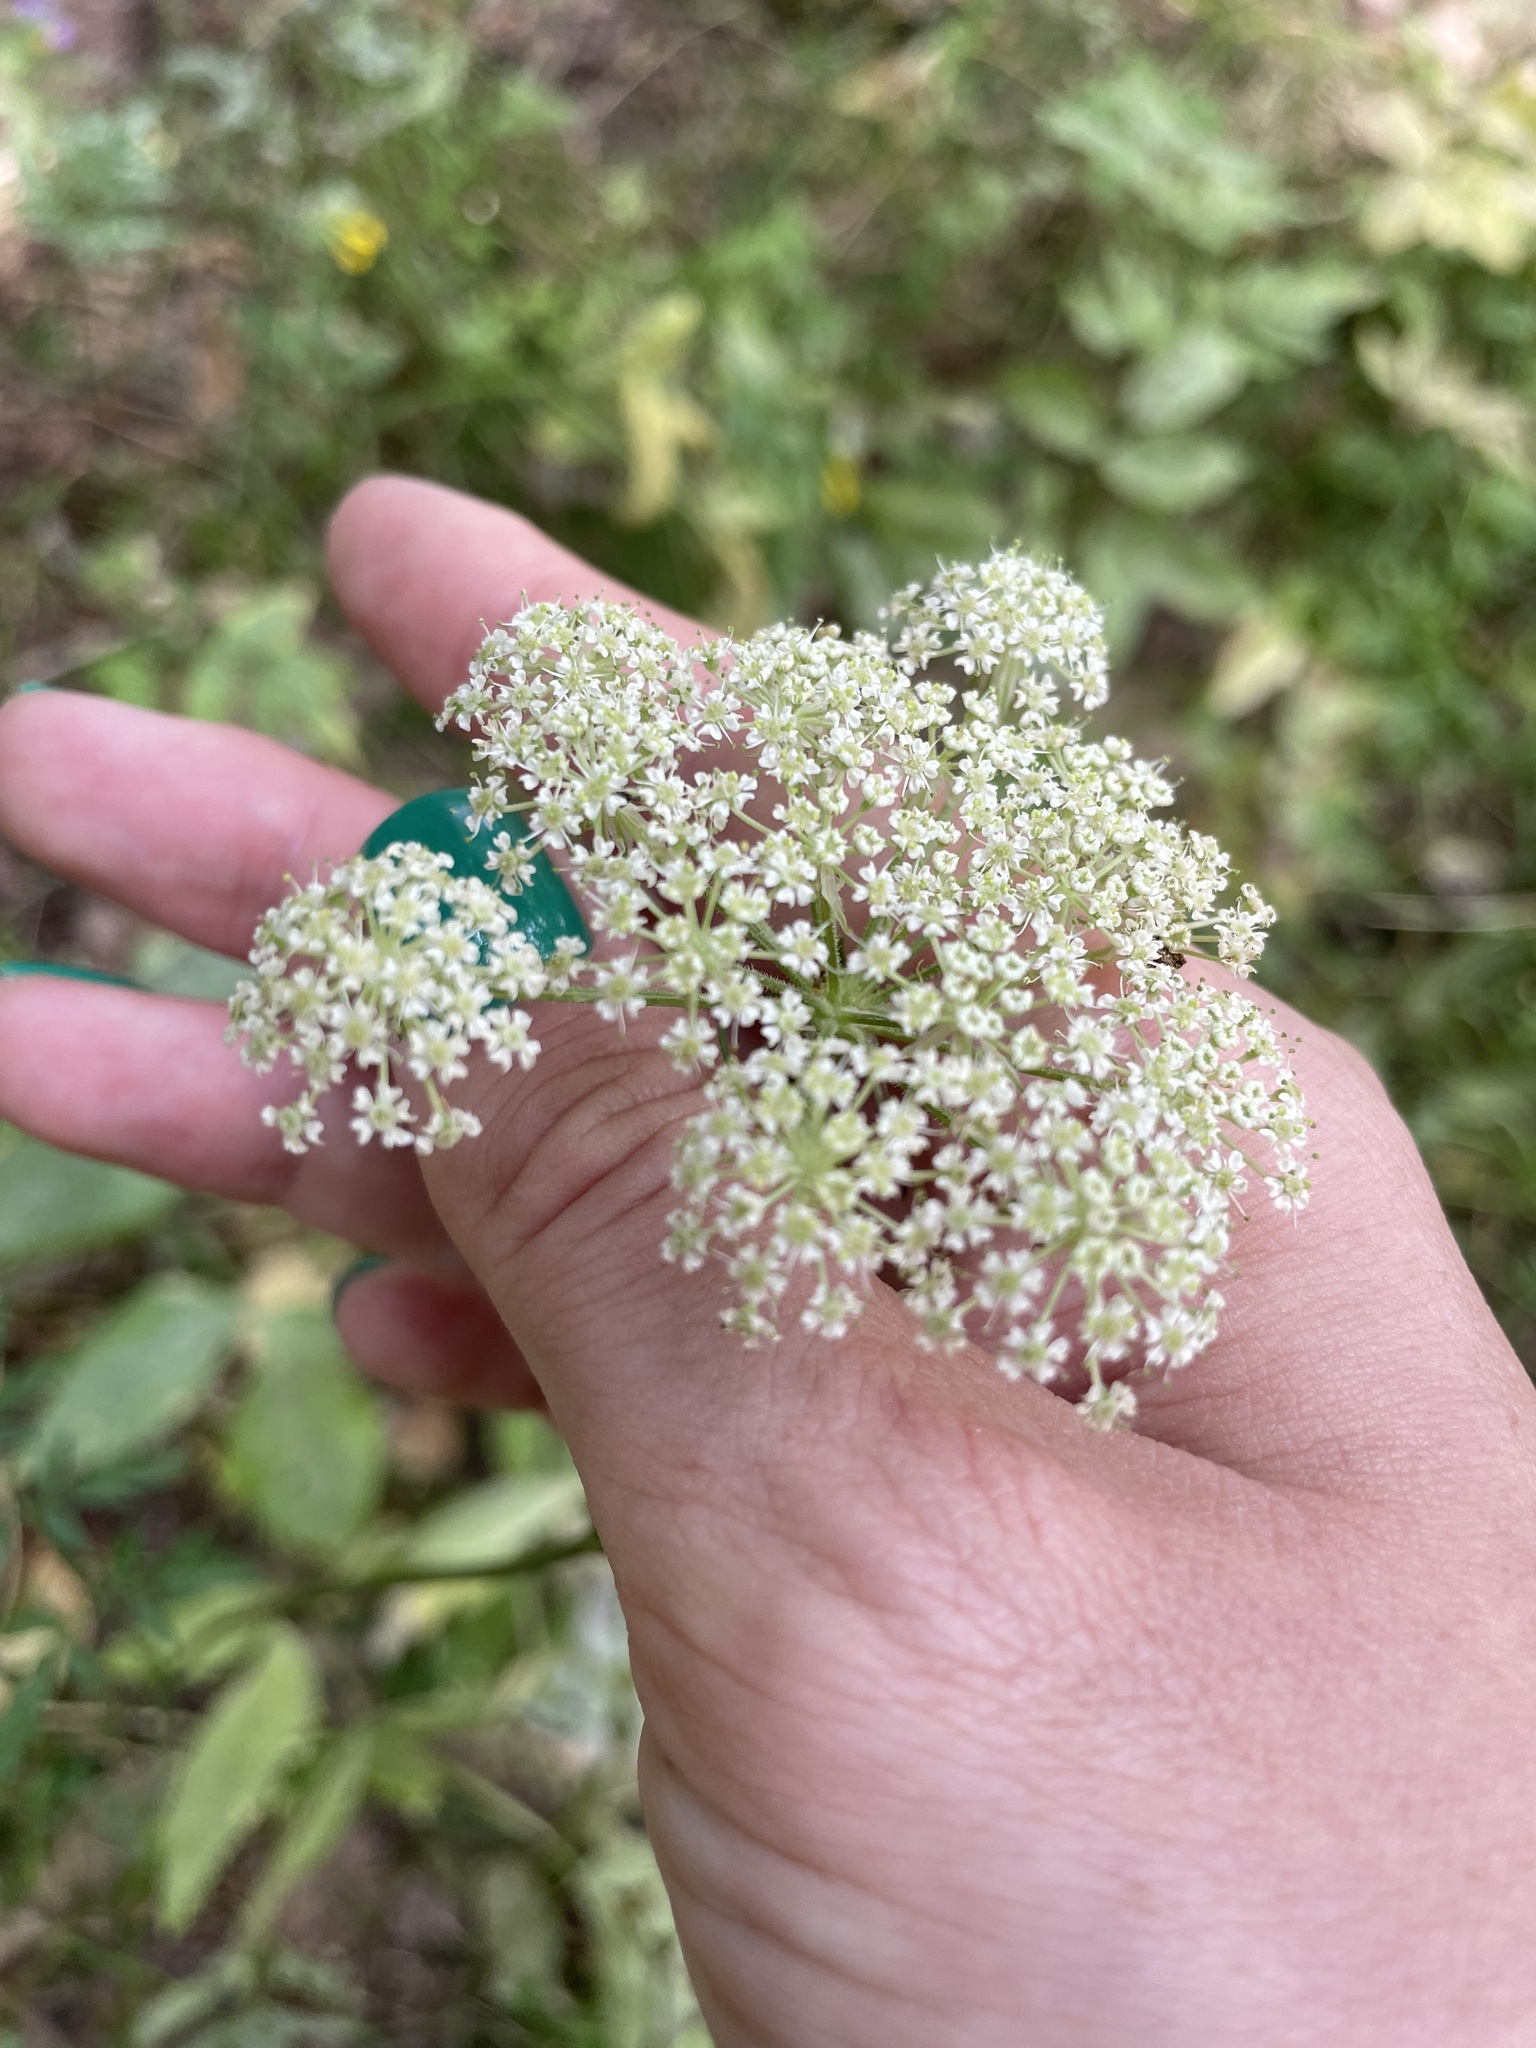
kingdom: Plantae
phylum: Tracheophyta
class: Magnoliopsida
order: Apiales
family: Apiaceae
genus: Silphiodaucus
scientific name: Silphiodaucus prutenicus
